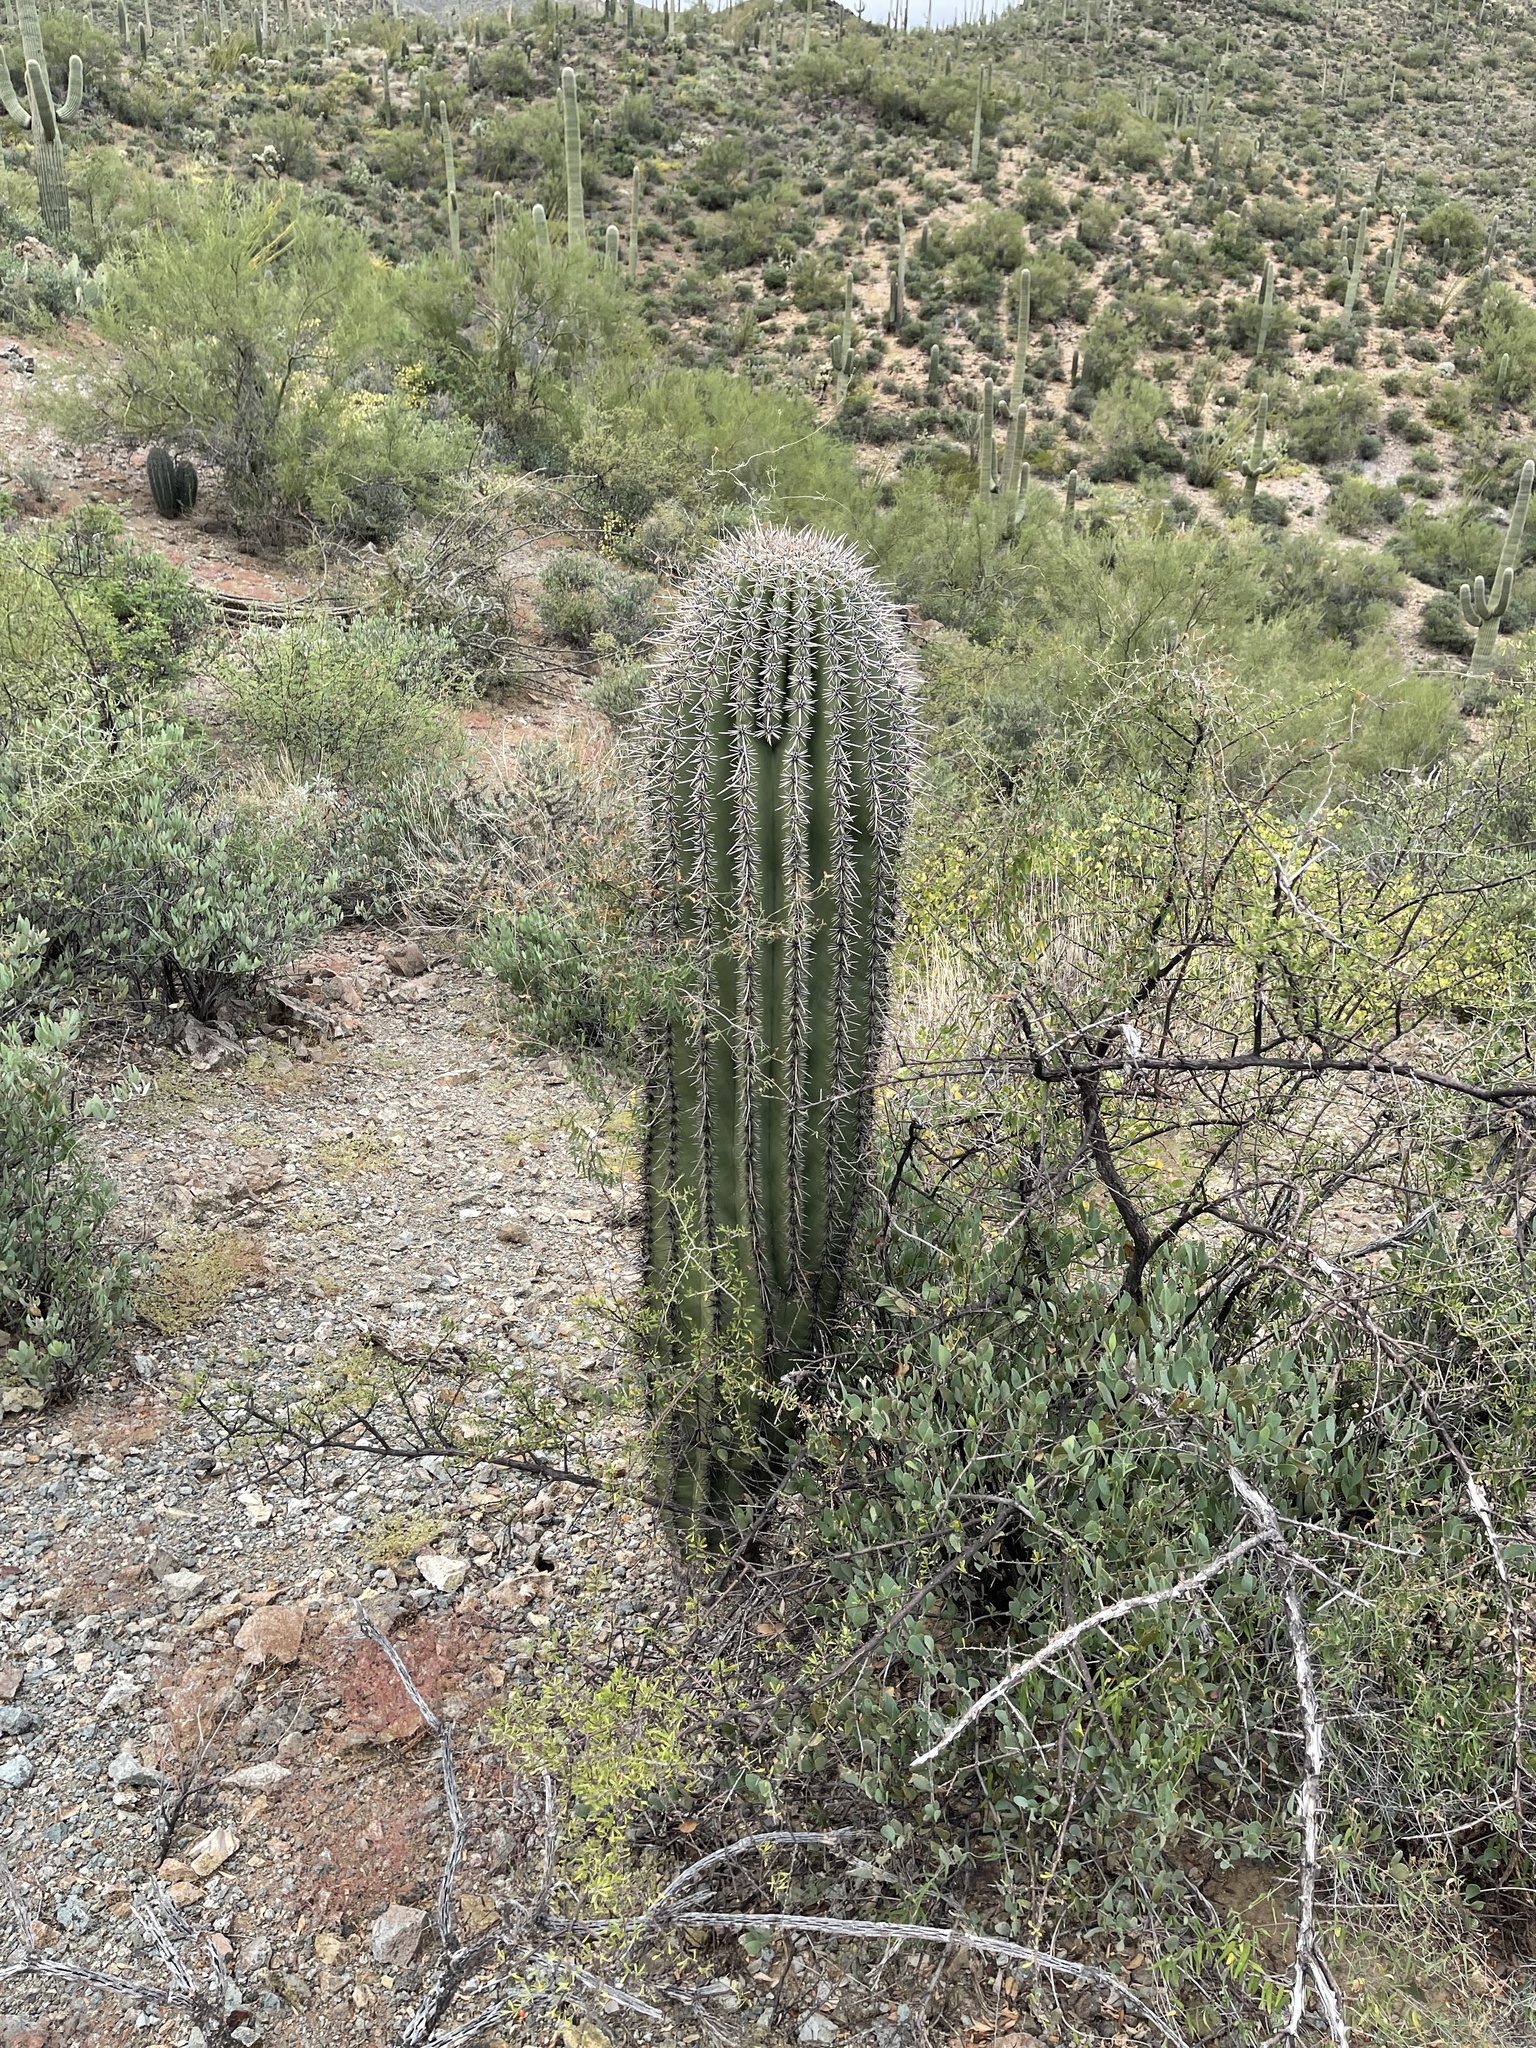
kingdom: Plantae
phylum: Tracheophyta
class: Magnoliopsida
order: Caryophyllales
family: Cactaceae
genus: Carnegiea
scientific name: Carnegiea gigantea
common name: Saguaro
